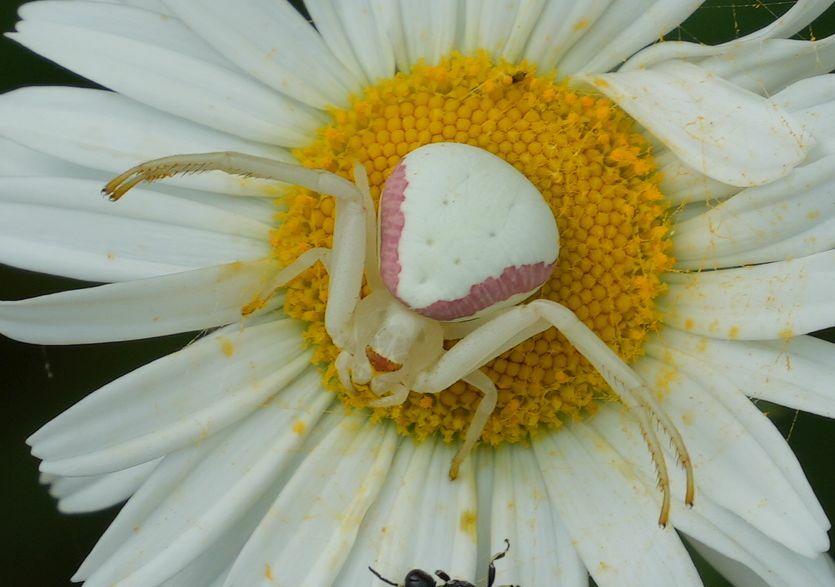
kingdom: Animalia
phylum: Arthropoda
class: Arachnida
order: Araneae
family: Thomisidae
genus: Misumena
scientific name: Misumena vatia
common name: Goldenrod crab spider
